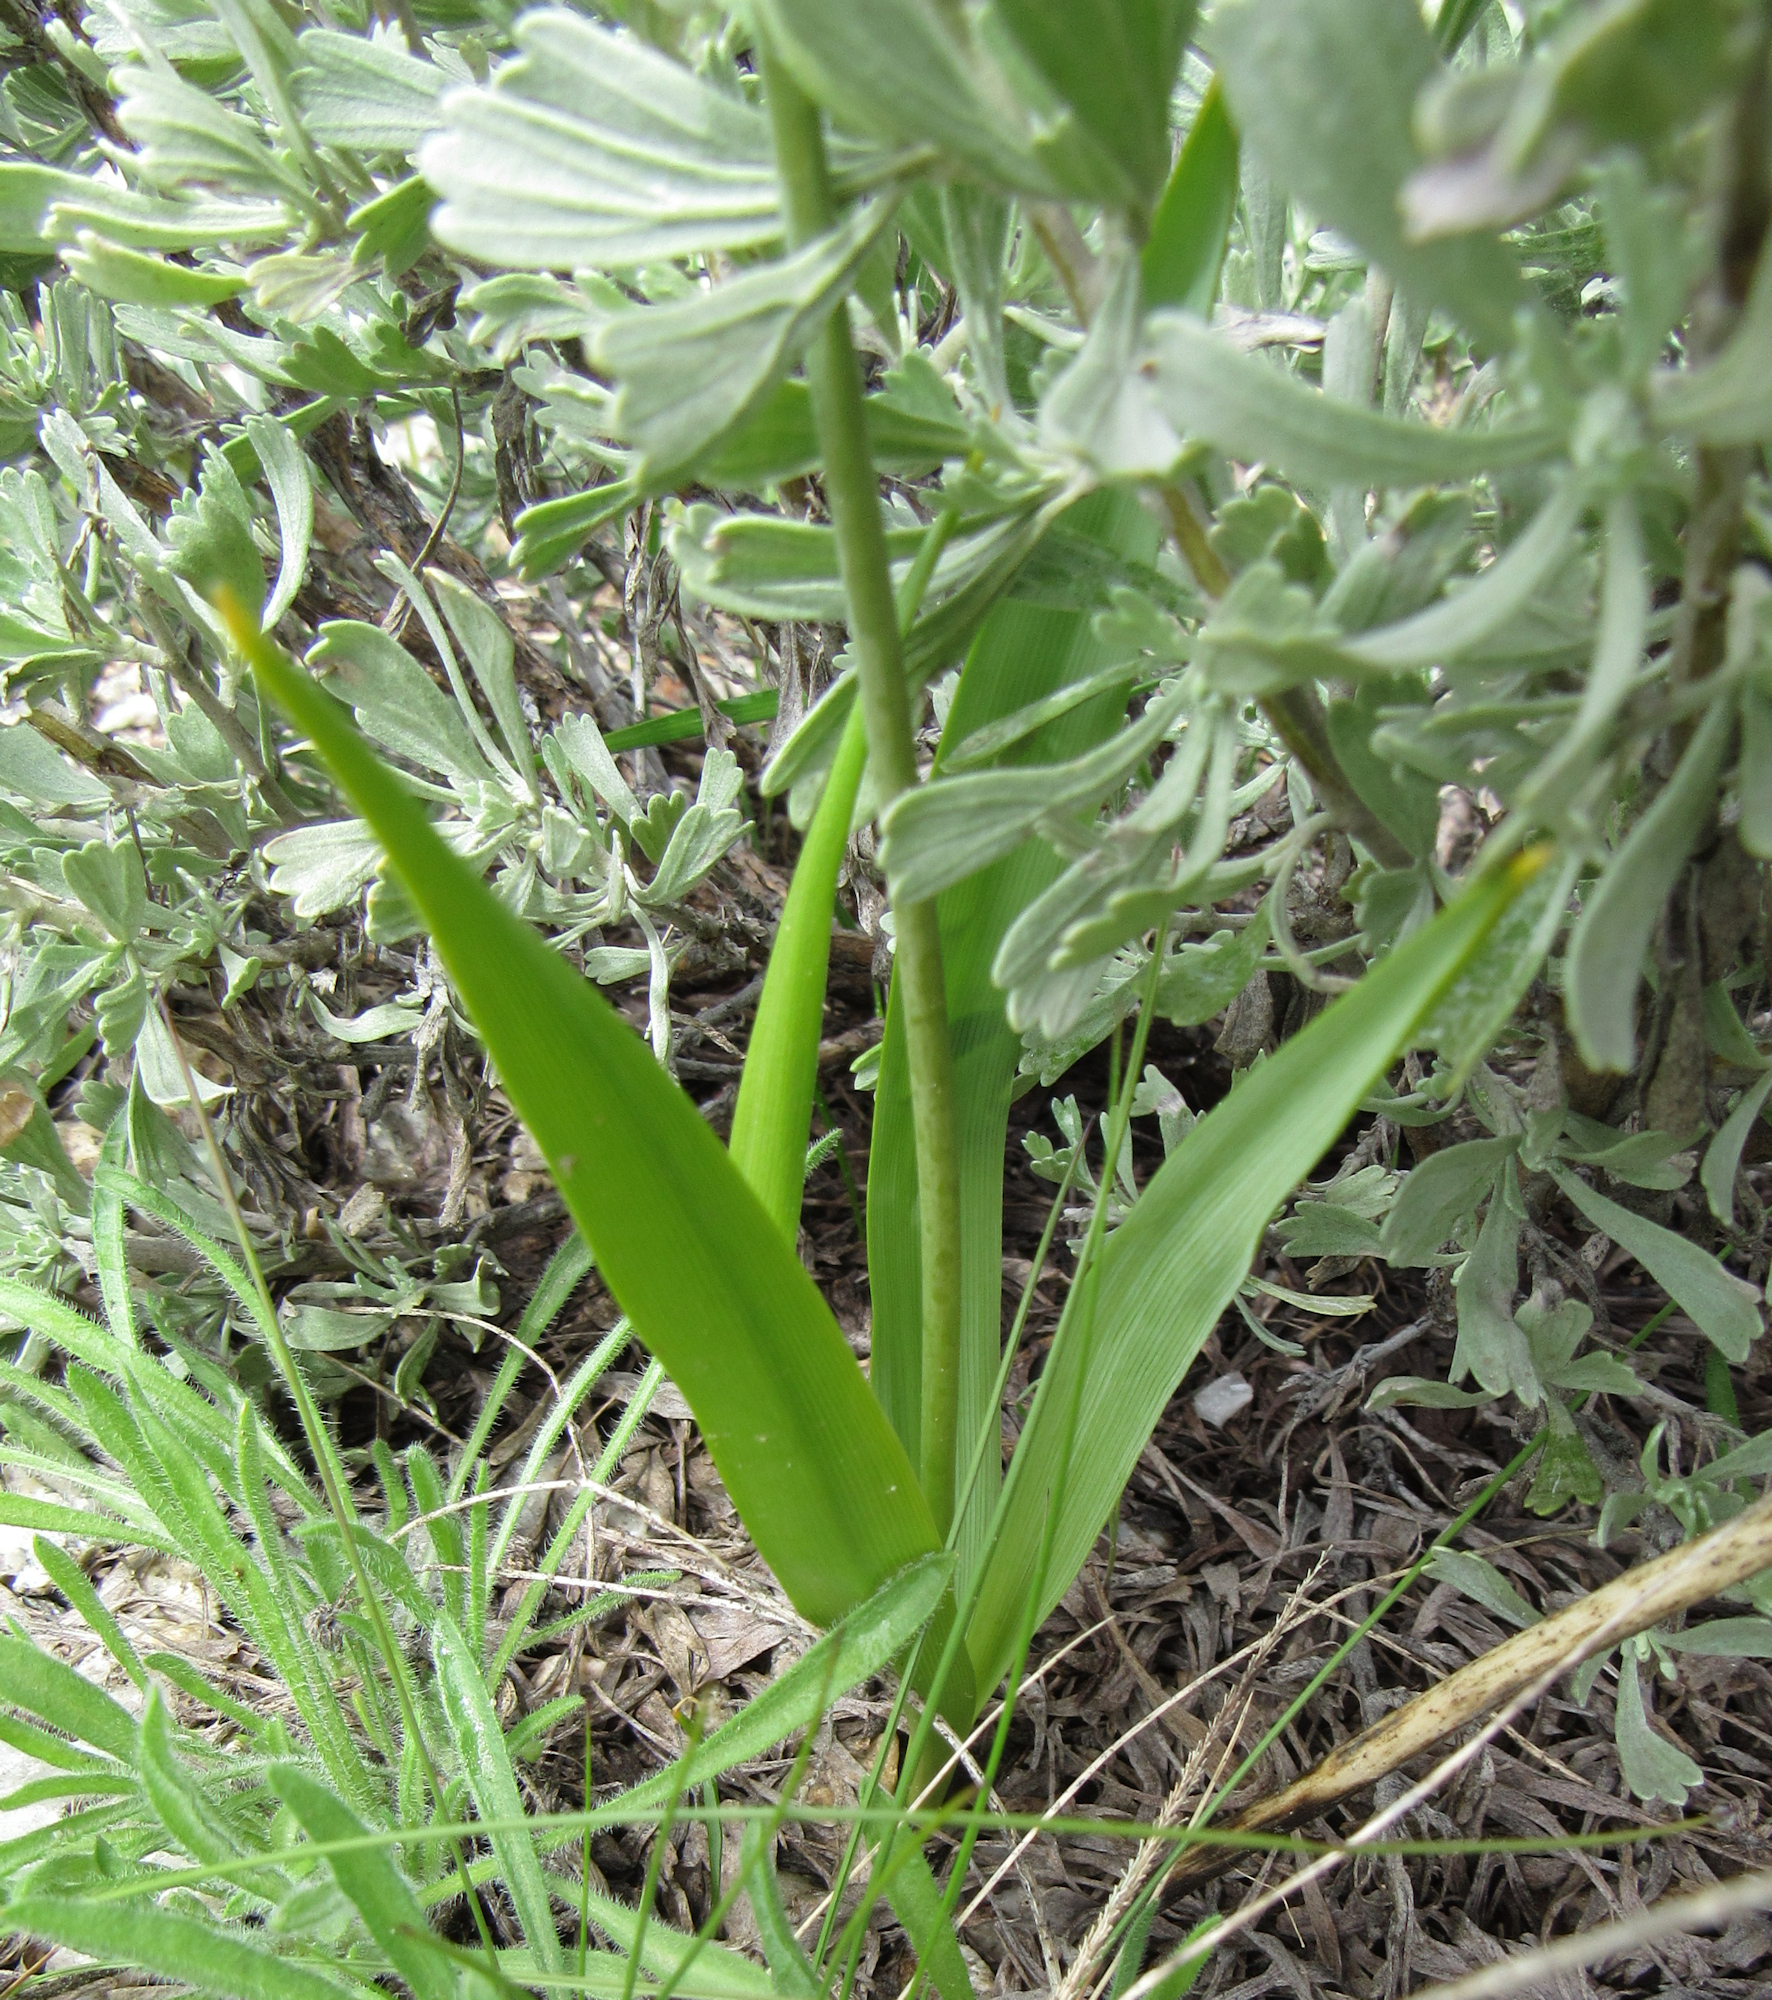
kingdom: Plantae
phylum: Tracheophyta
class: Liliopsida
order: Asparagales
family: Asparagaceae
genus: Camassia
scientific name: Camassia quamash
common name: Common camas
